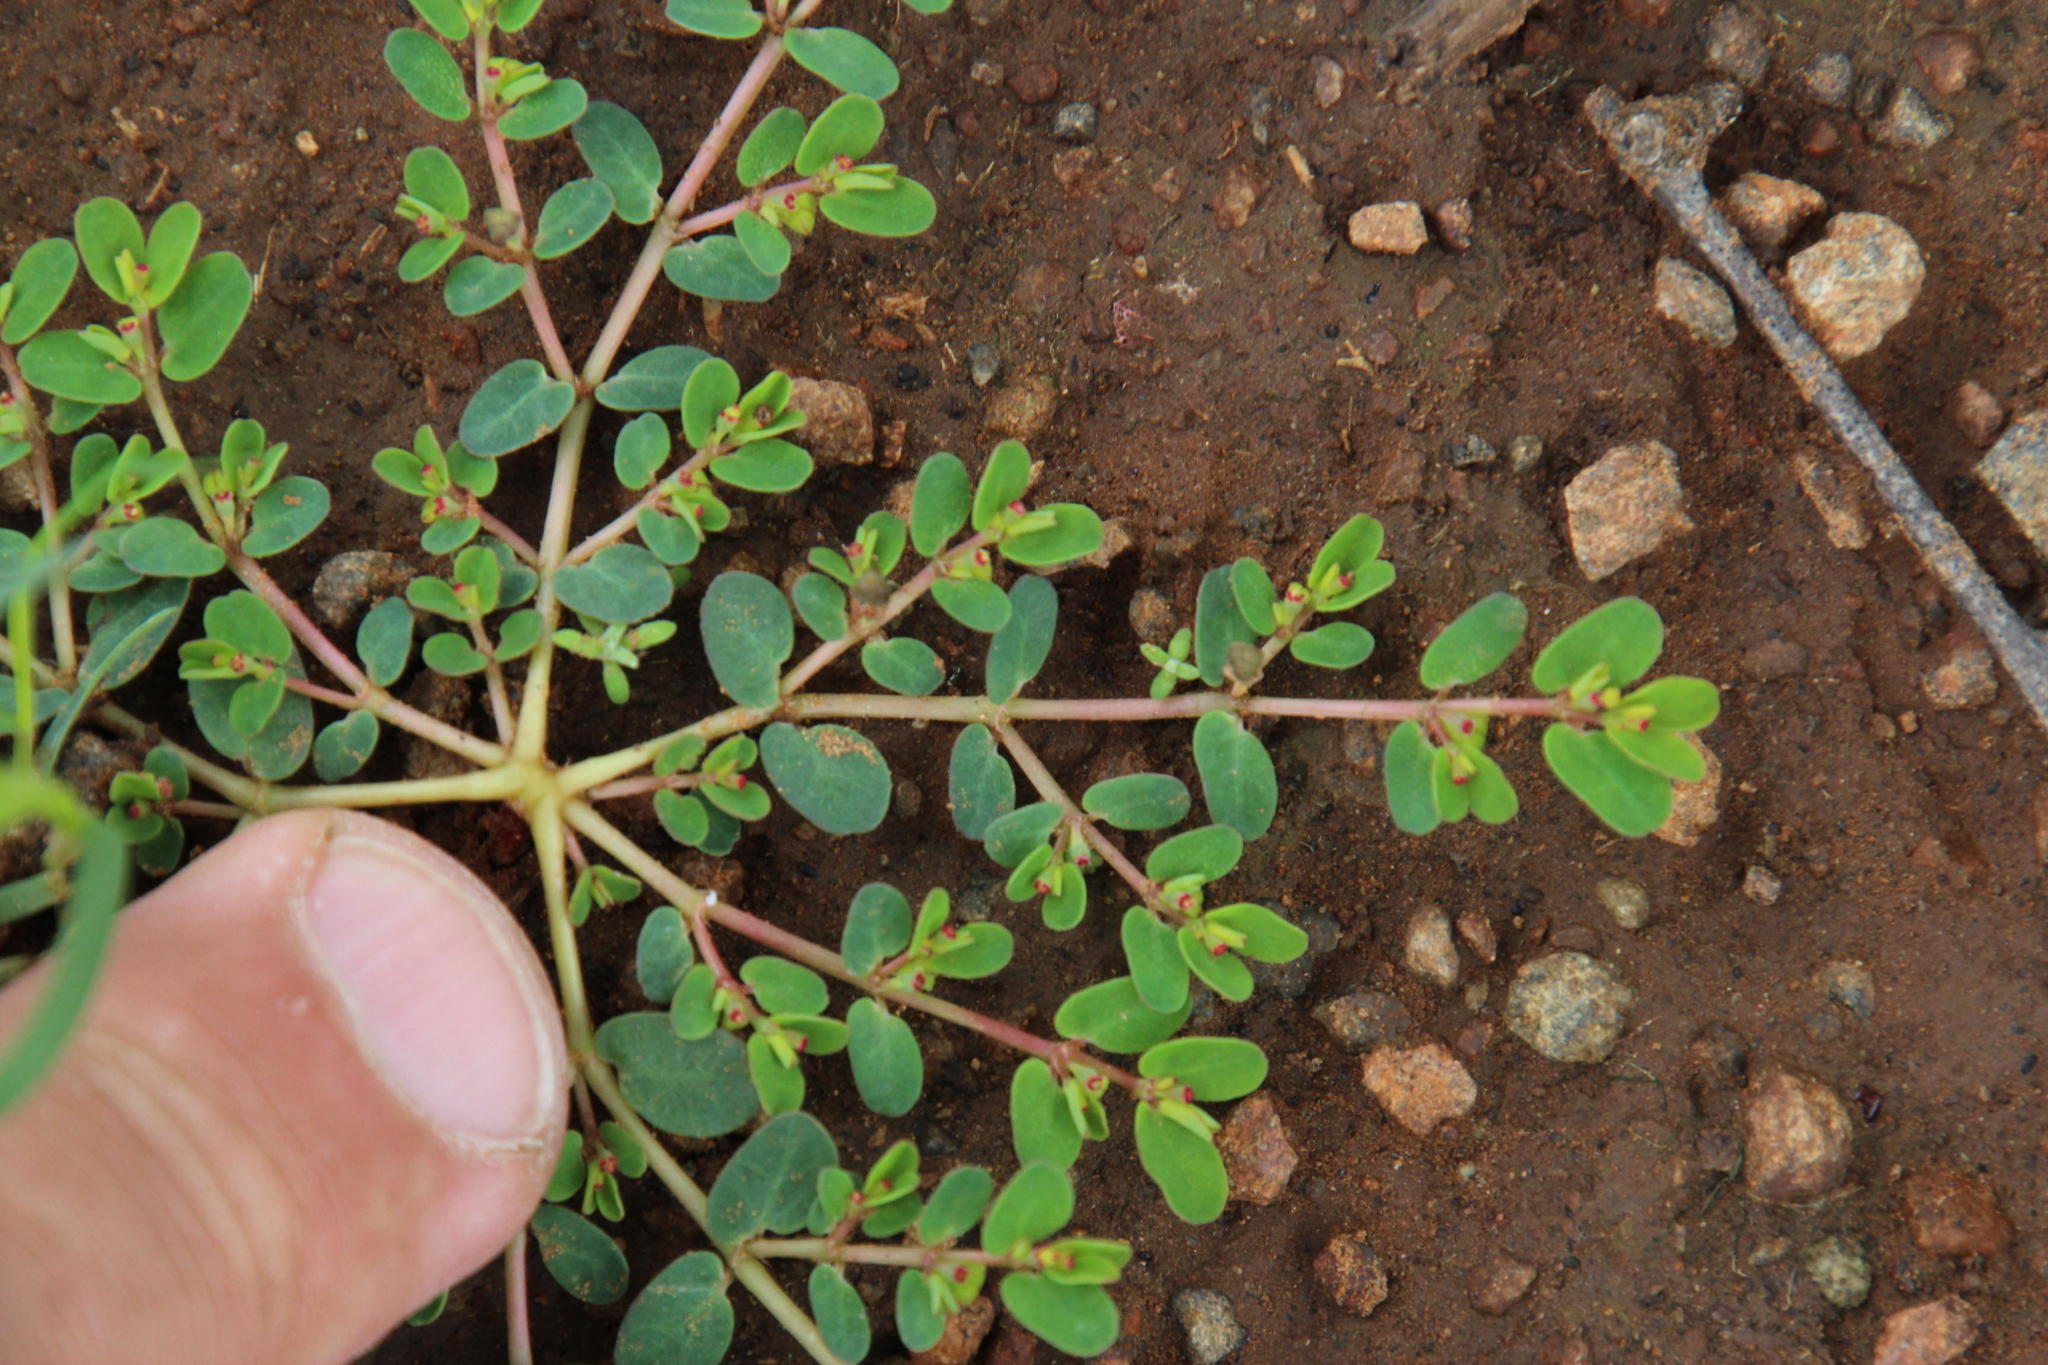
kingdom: Plantae
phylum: Tracheophyta
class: Magnoliopsida
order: Malpighiales
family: Euphorbiaceae
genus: Euphorbia
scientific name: Euphorbia inaequilatera
